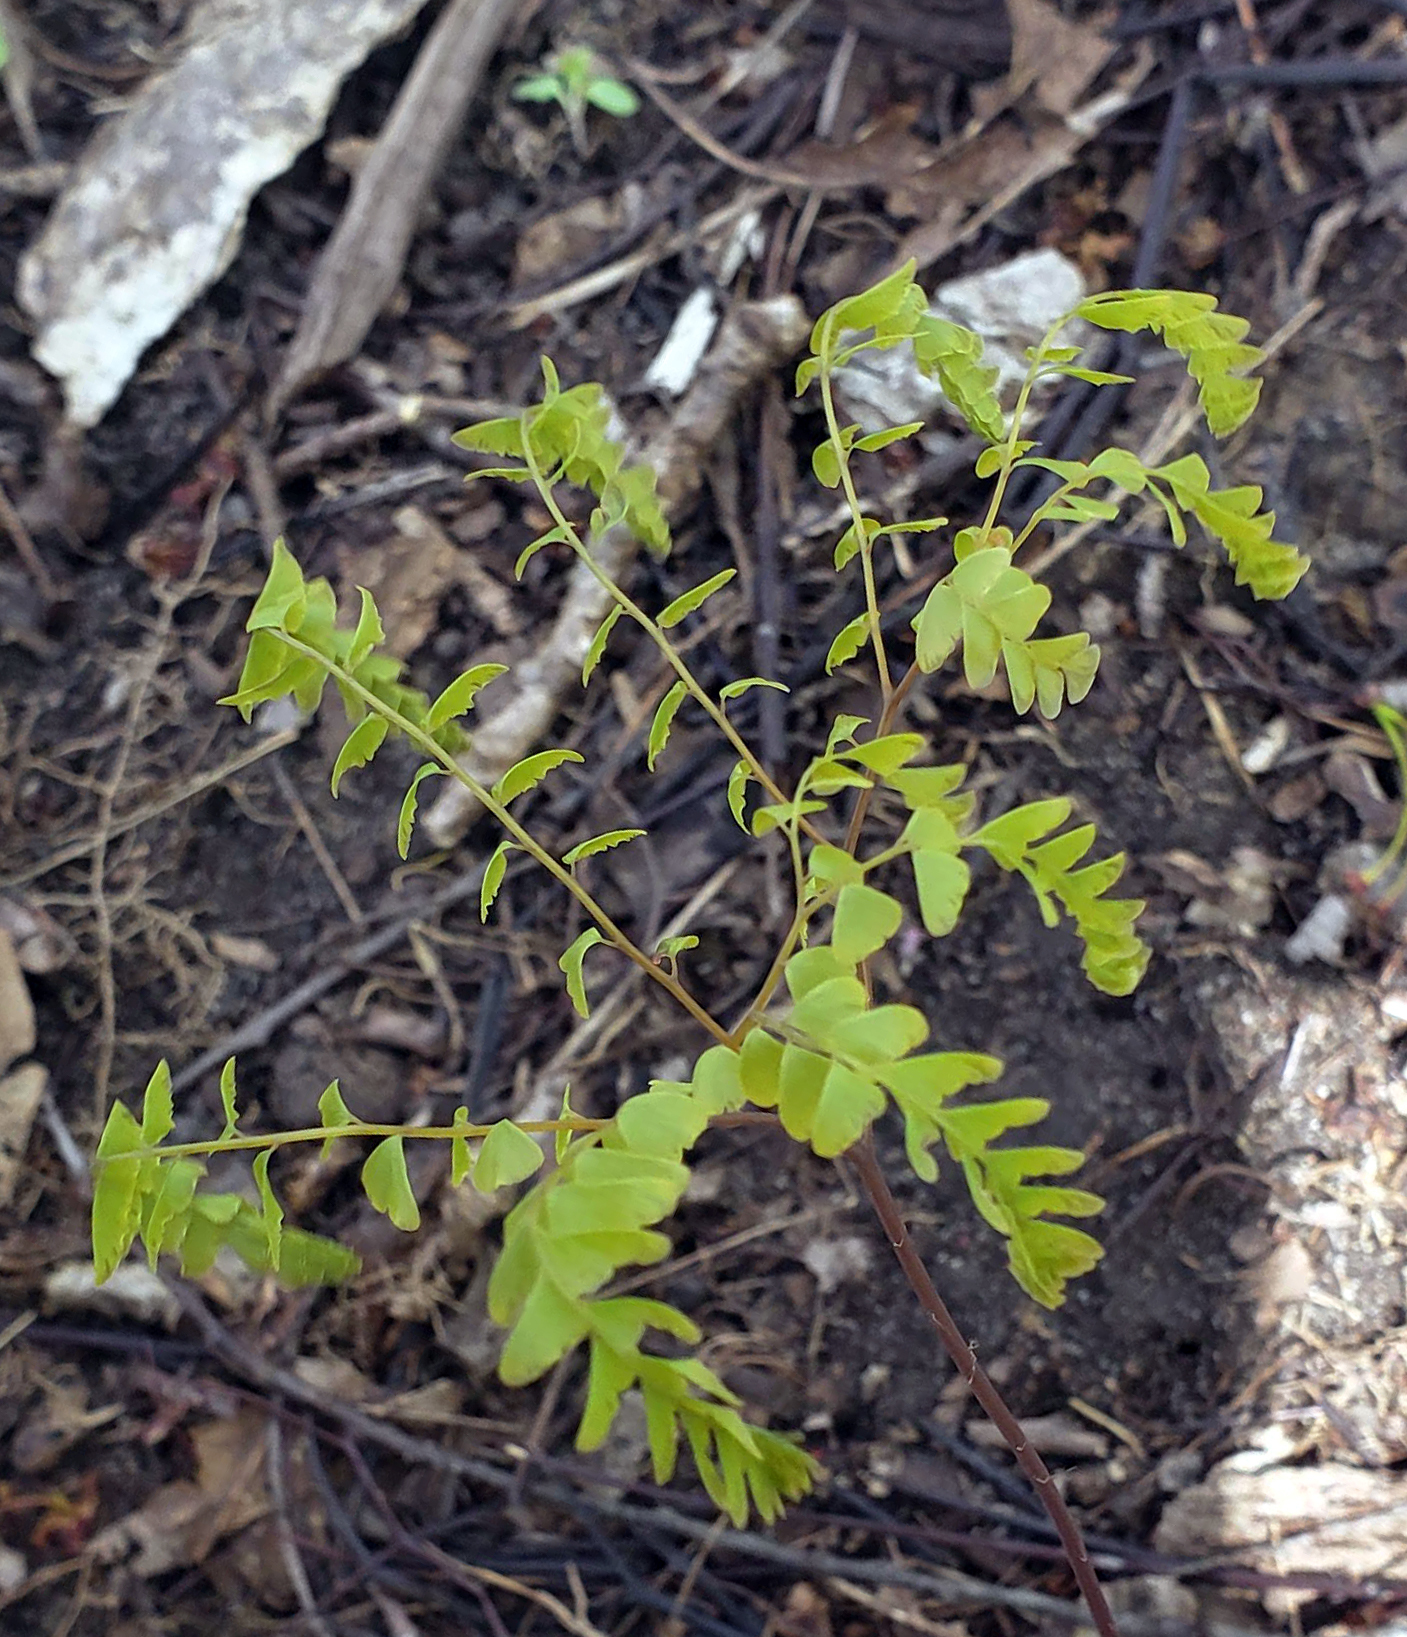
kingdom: Plantae
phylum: Tracheophyta
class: Polypodiopsida
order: Polypodiales
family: Pteridaceae
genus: Adiantum
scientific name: Adiantum pedatum
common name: Five-finger fern
